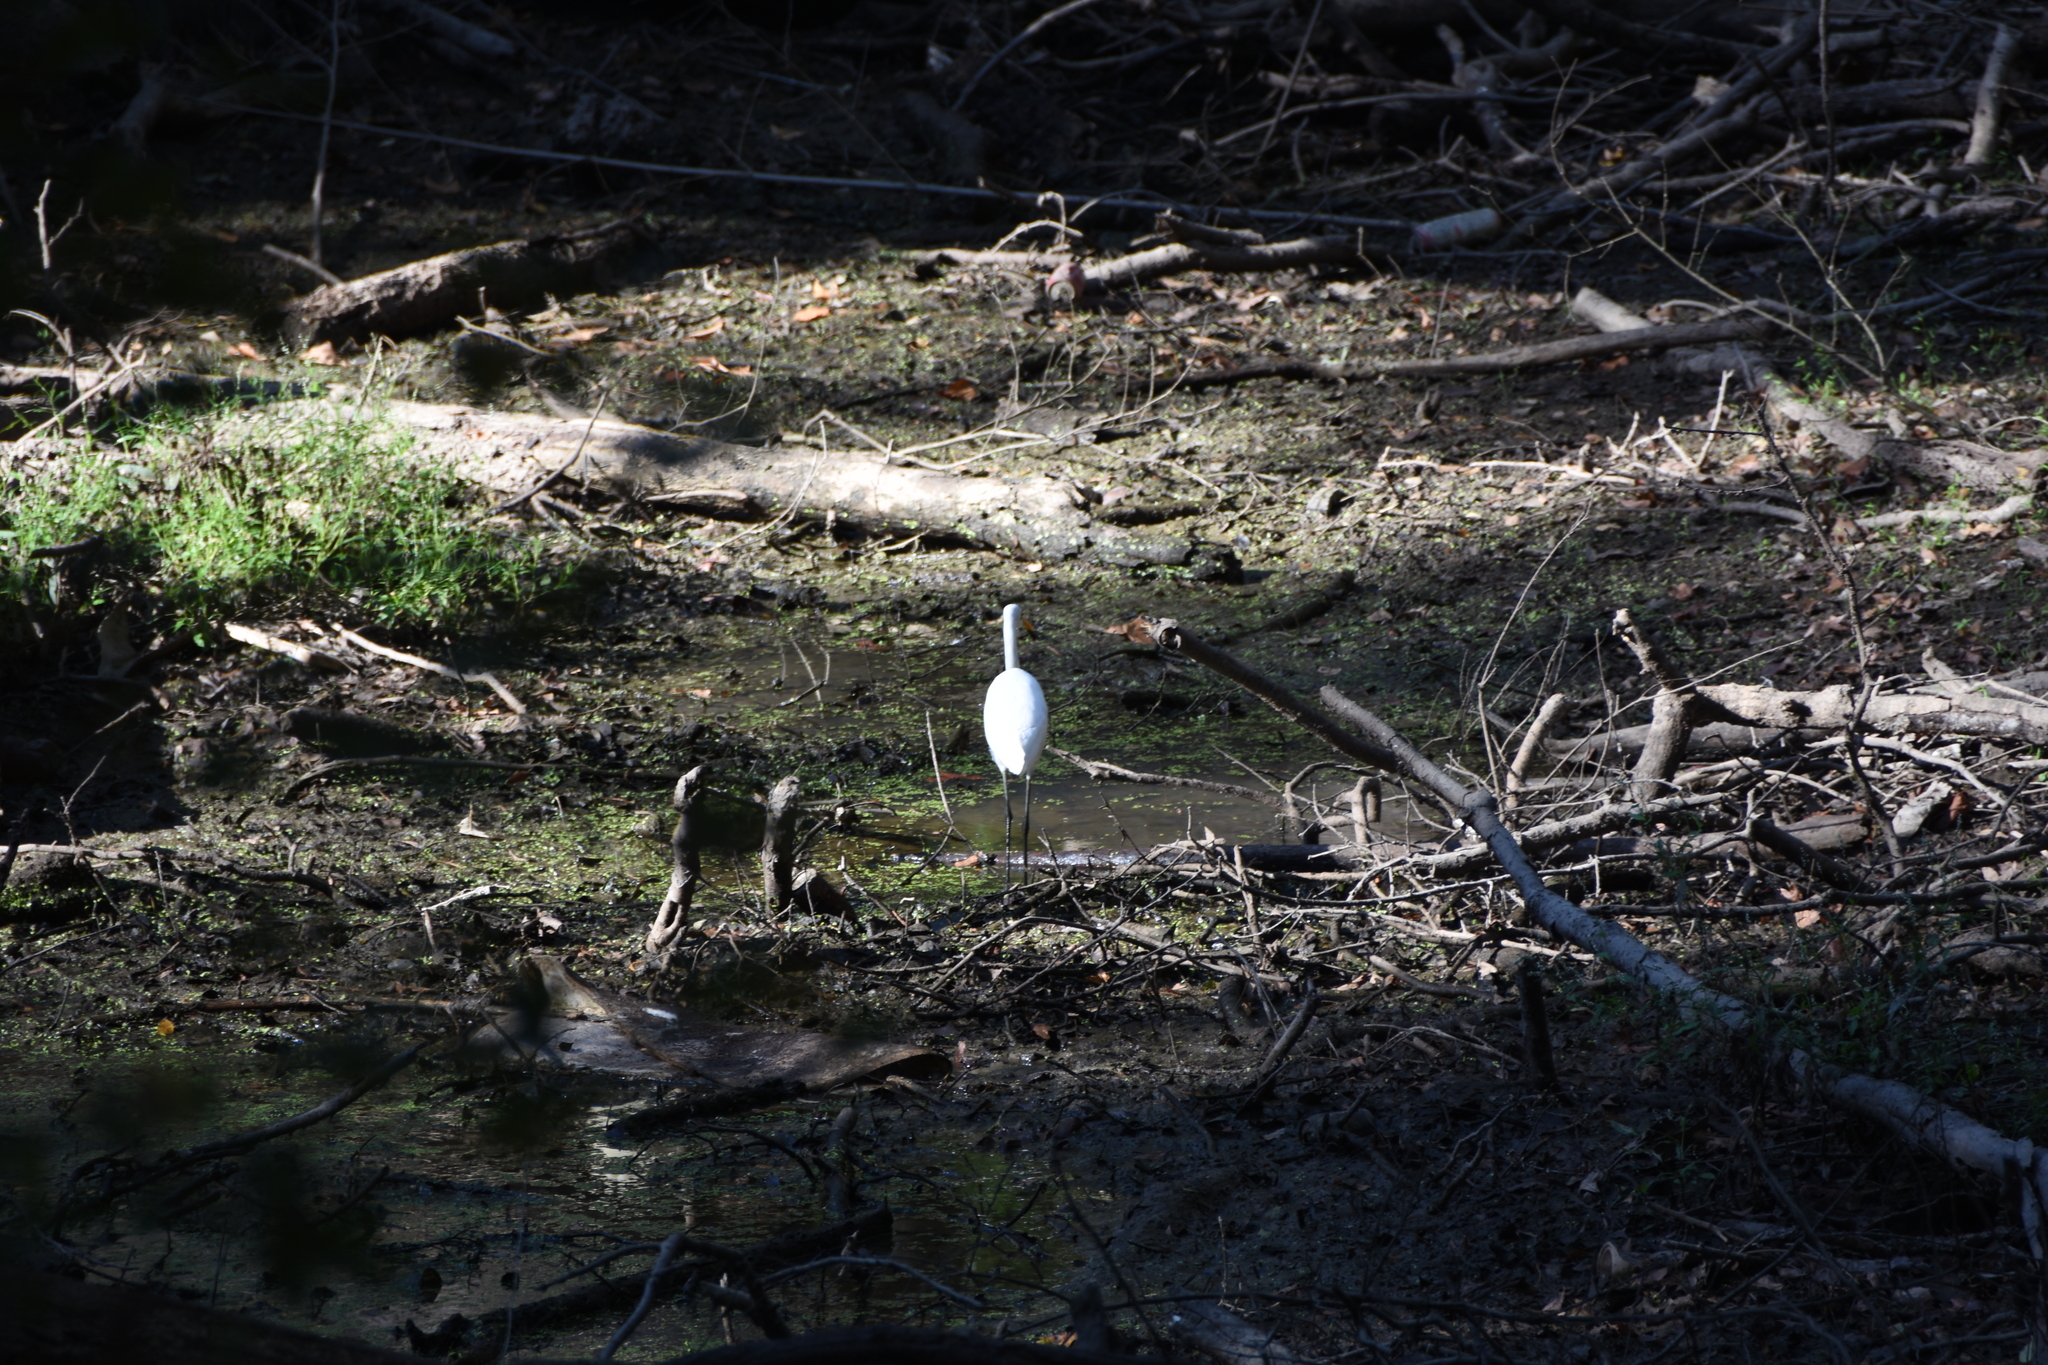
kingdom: Animalia
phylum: Chordata
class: Aves
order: Pelecaniformes
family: Ardeidae
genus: Ardea
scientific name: Ardea alba
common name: Great egret
